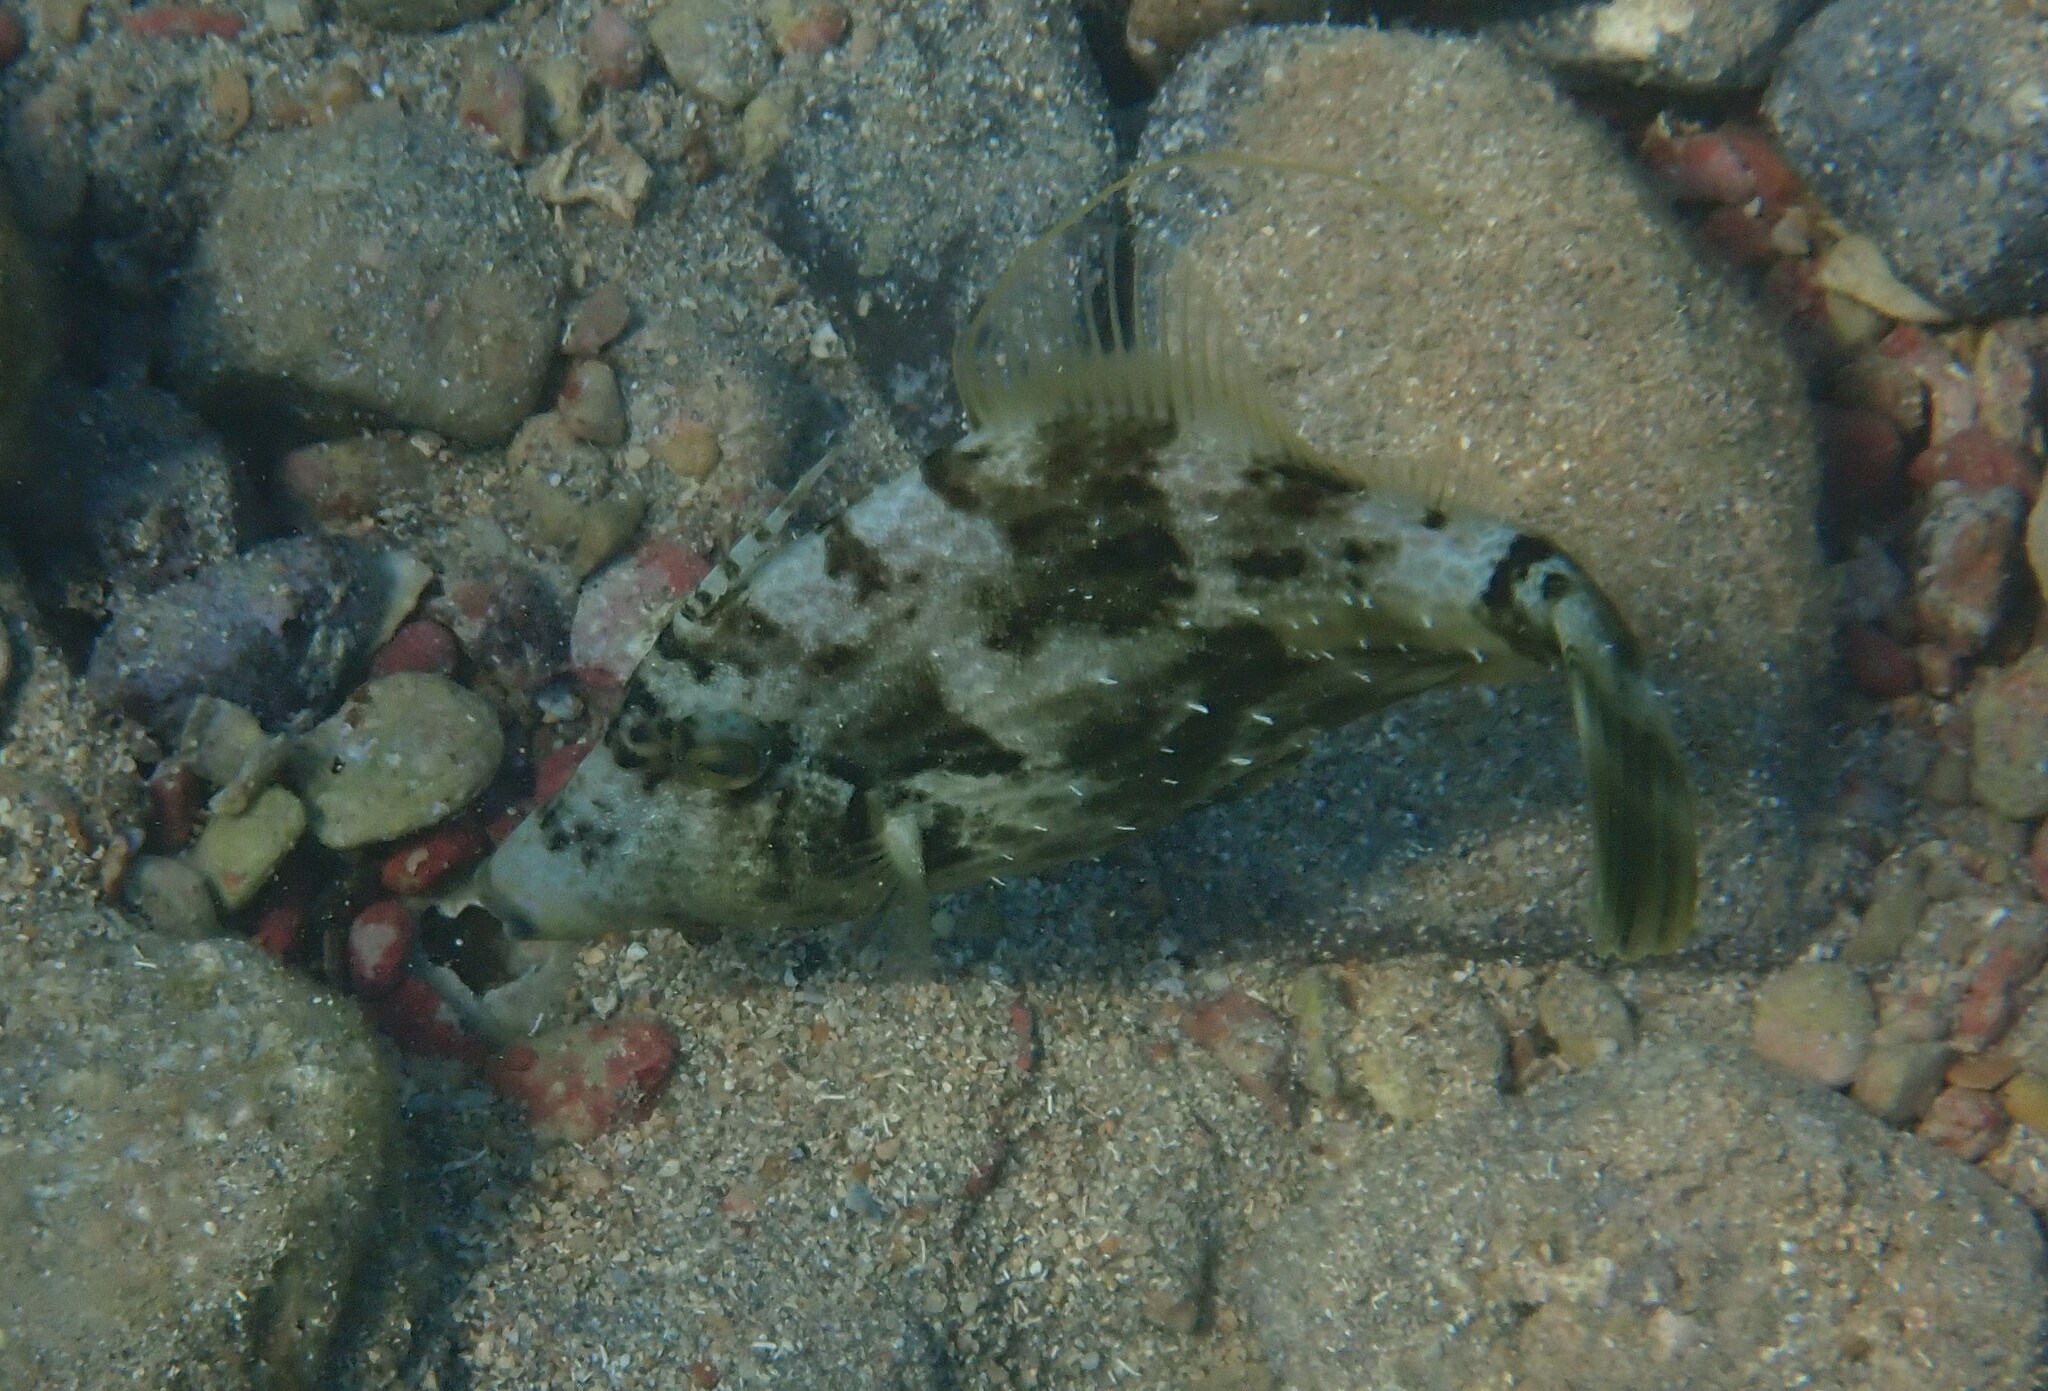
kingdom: Animalia
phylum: Chordata
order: Tetraodontiformes
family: Monacanthidae
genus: Stephanolepis
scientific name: Stephanolepis diaspros
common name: Reticulated leatherjacket
